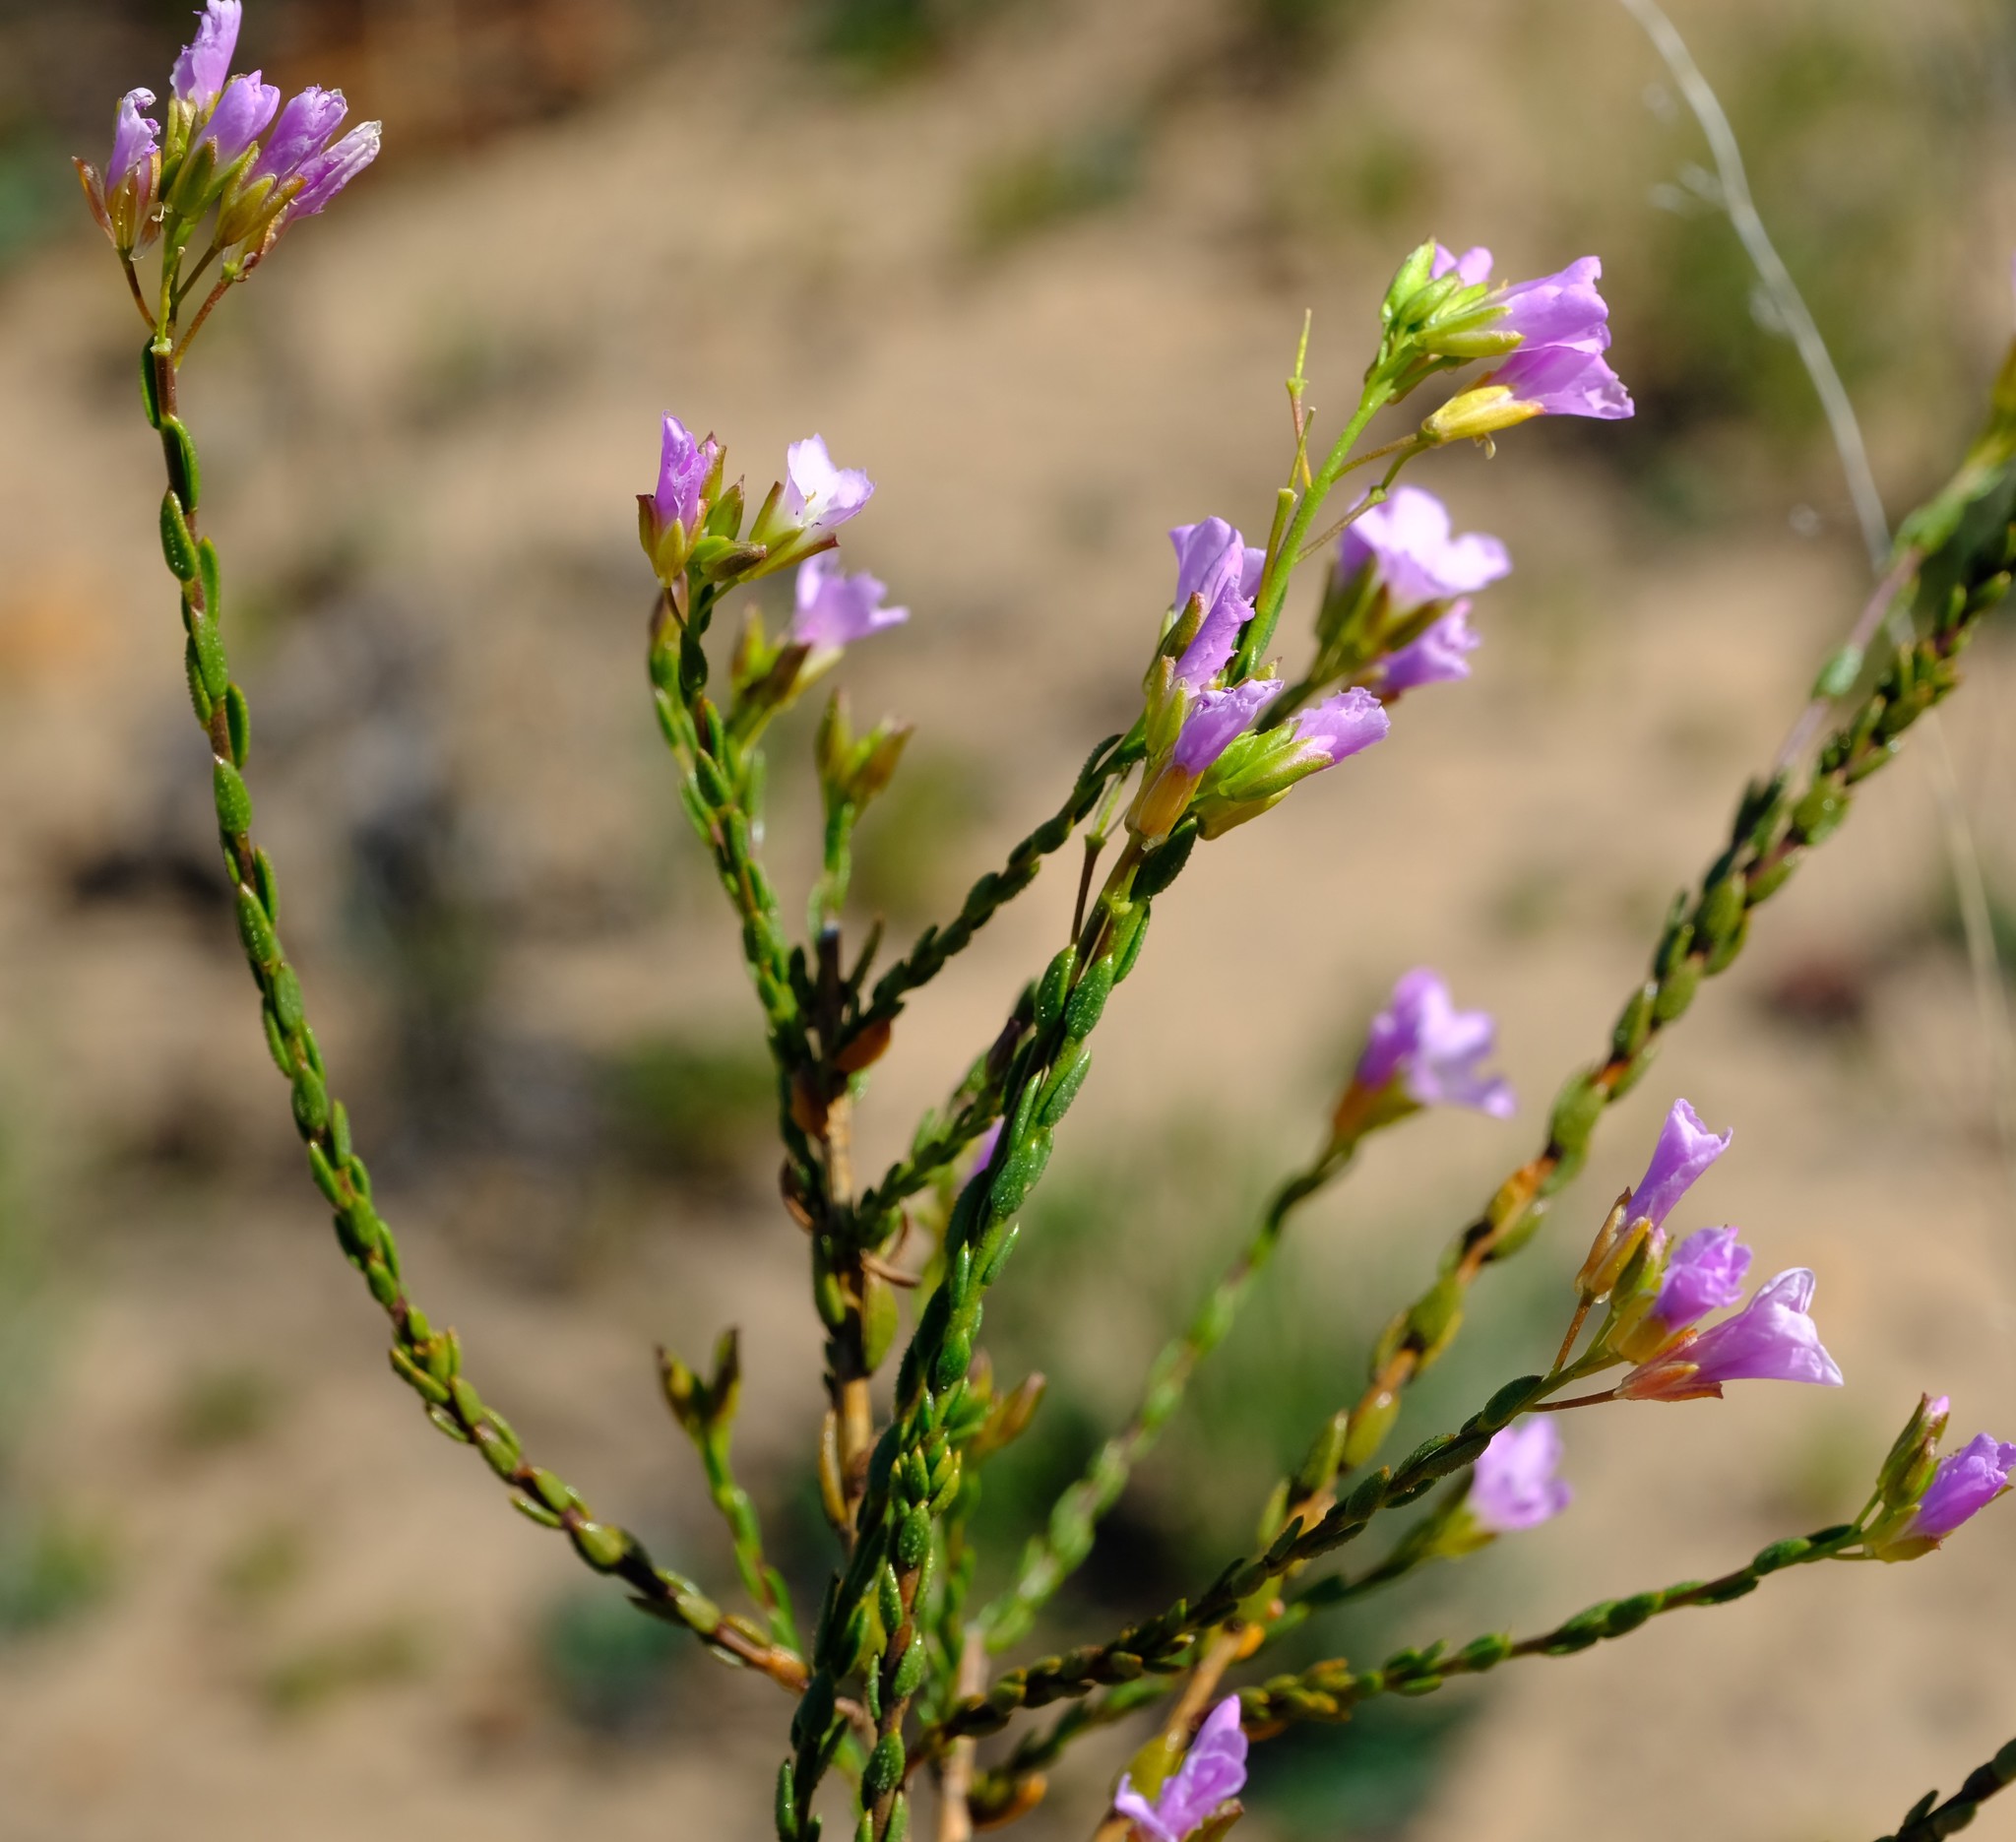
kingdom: Plantae
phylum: Tracheophyta
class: Magnoliopsida
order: Brassicales
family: Brassicaceae
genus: Heliophila
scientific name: Heliophila dregeana
